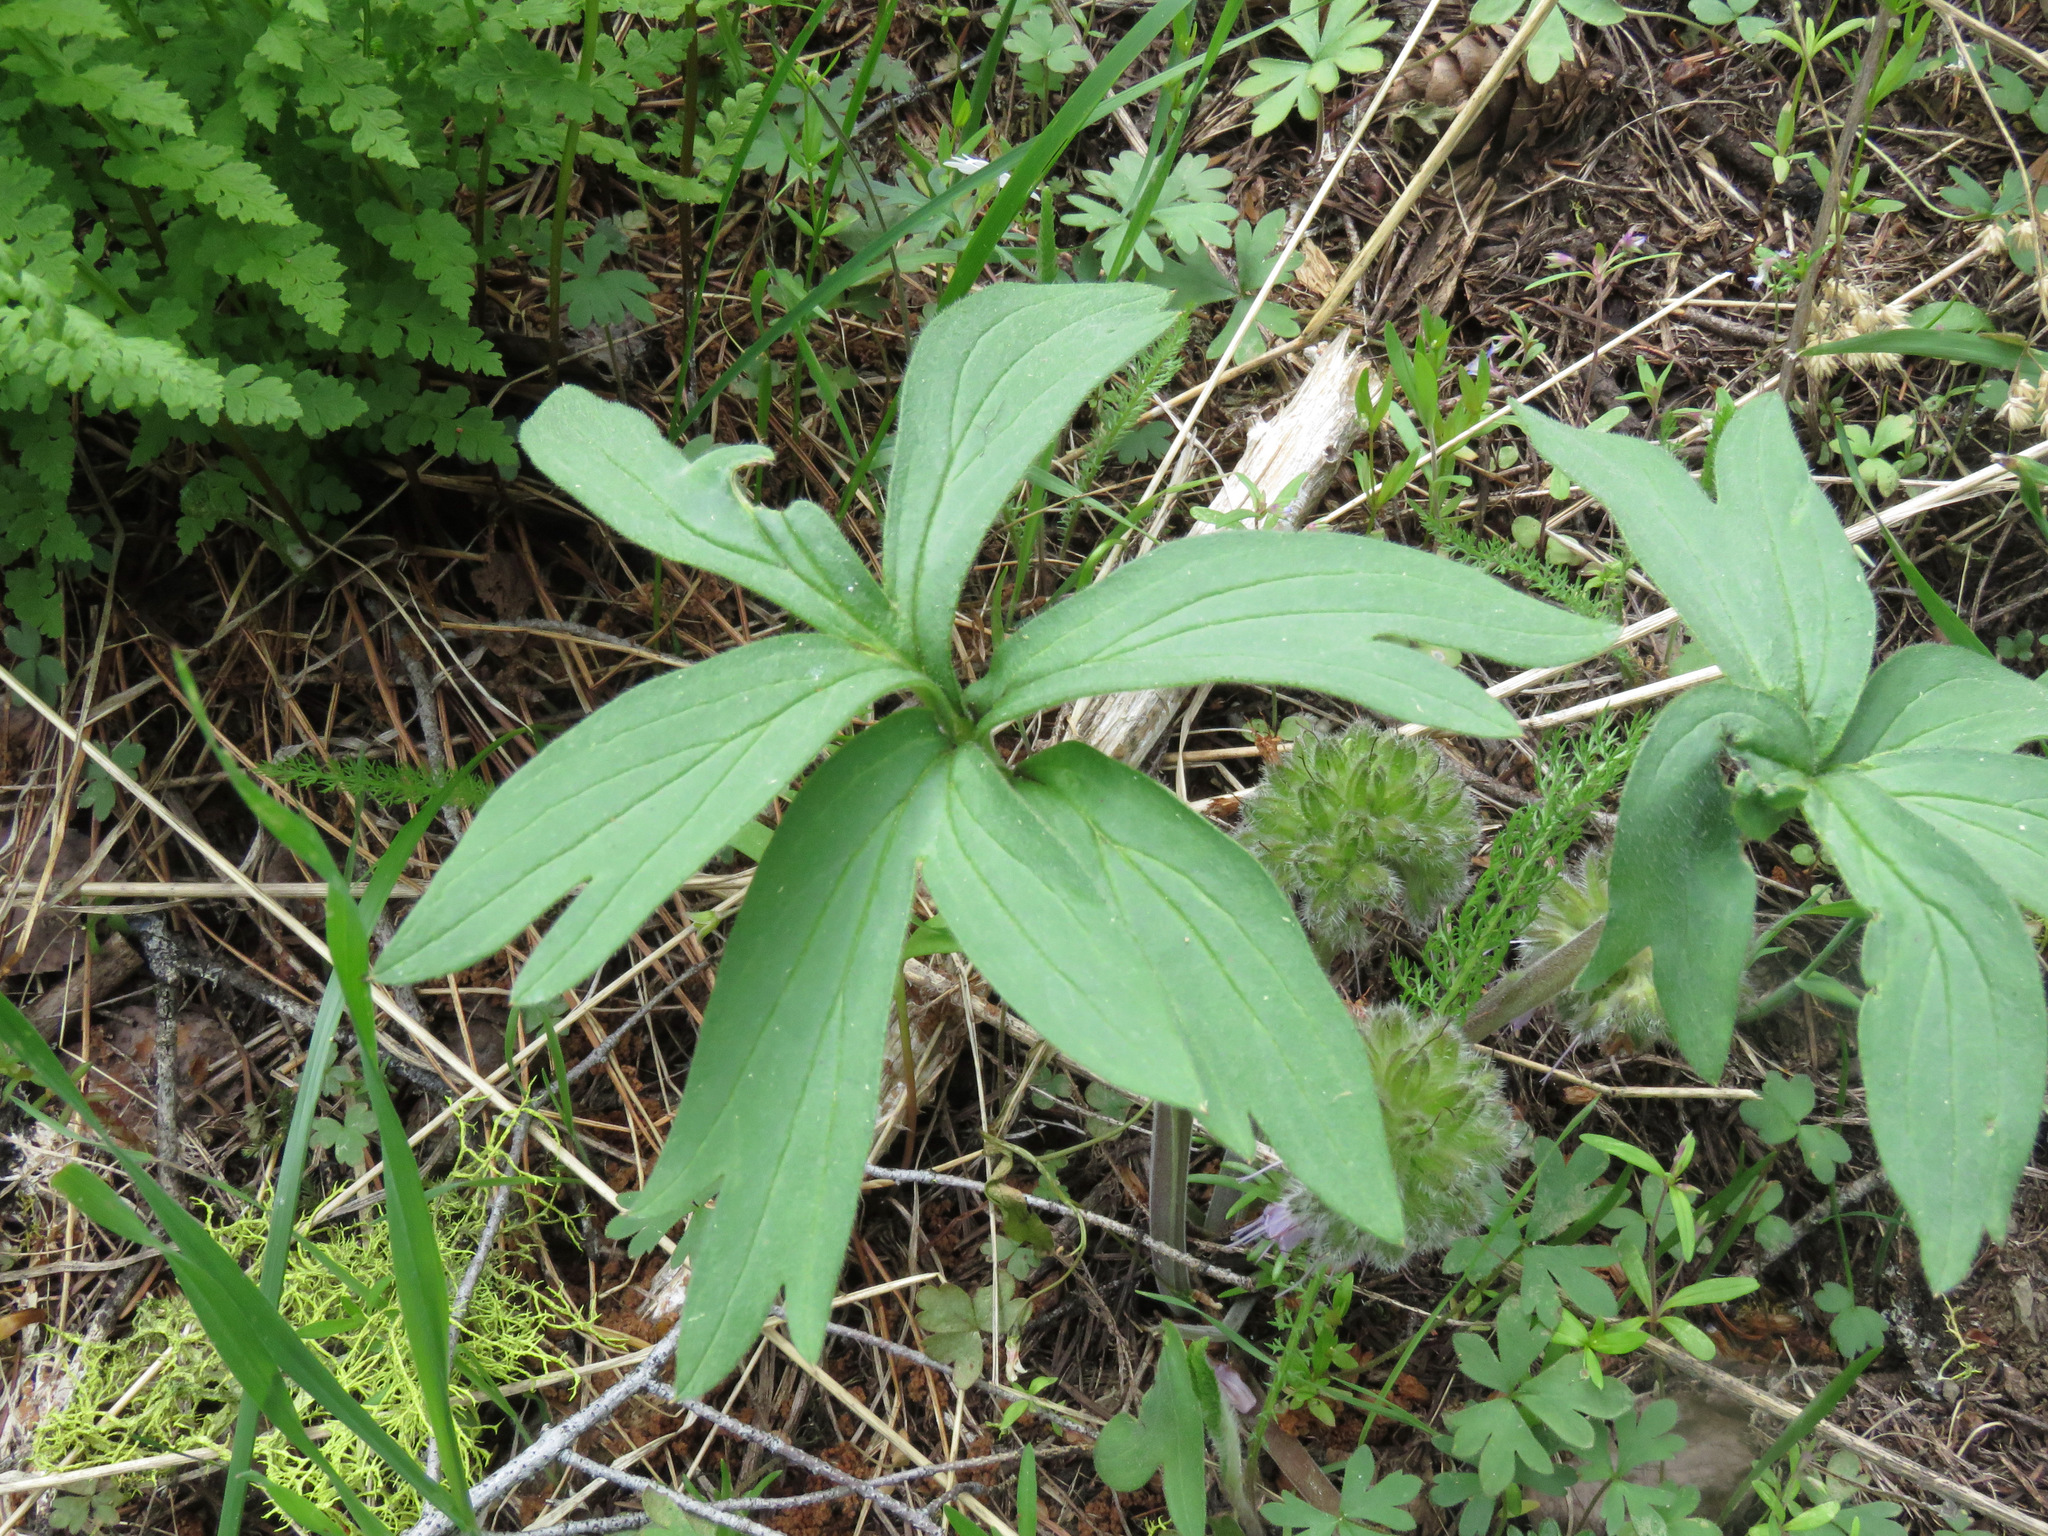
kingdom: Plantae
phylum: Tracheophyta
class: Magnoliopsida
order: Boraginales
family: Hydrophyllaceae
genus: Hydrophyllum
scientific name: Hydrophyllum capitatum
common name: Woollen-breeches
